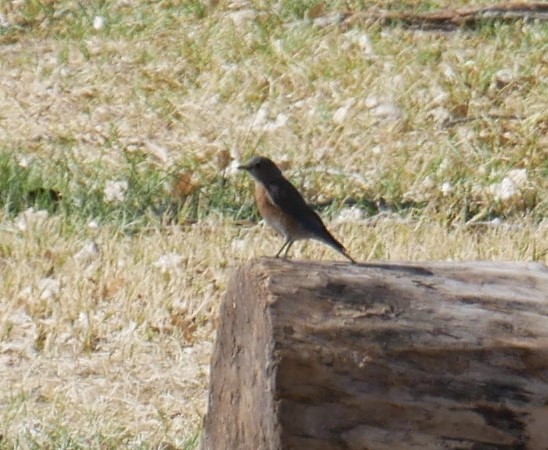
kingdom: Animalia
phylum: Chordata
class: Aves
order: Passeriformes
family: Turdidae
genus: Sialia
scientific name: Sialia mexicana
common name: Western bluebird
